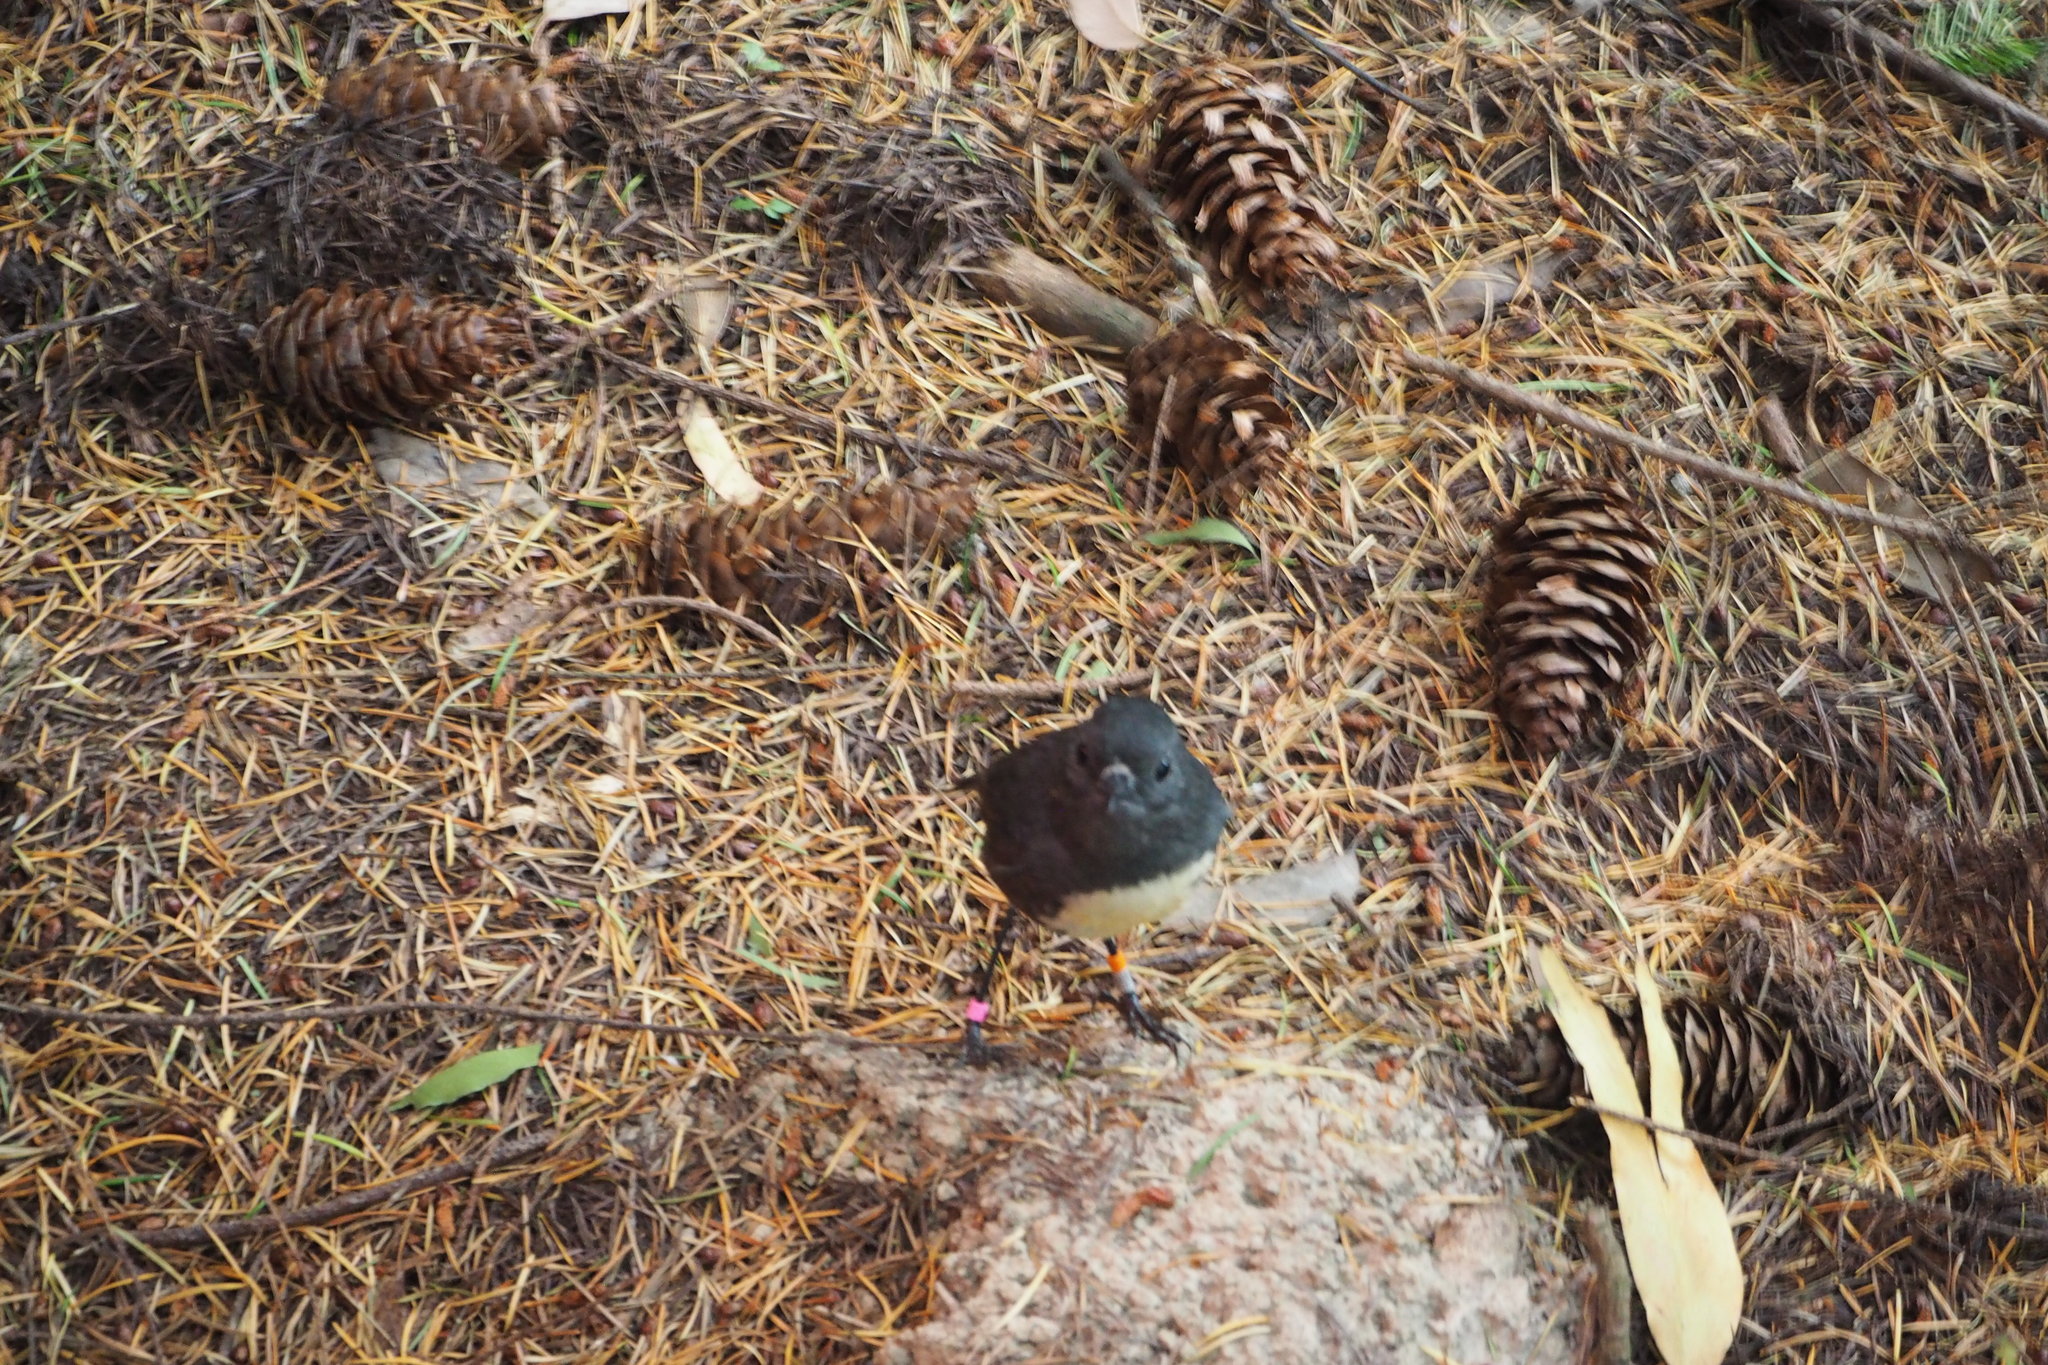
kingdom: Animalia
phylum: Chordata
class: Aves
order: Passeriformes
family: Petroicidae
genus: Petroica
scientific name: Petroica australis
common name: New zealand robin
